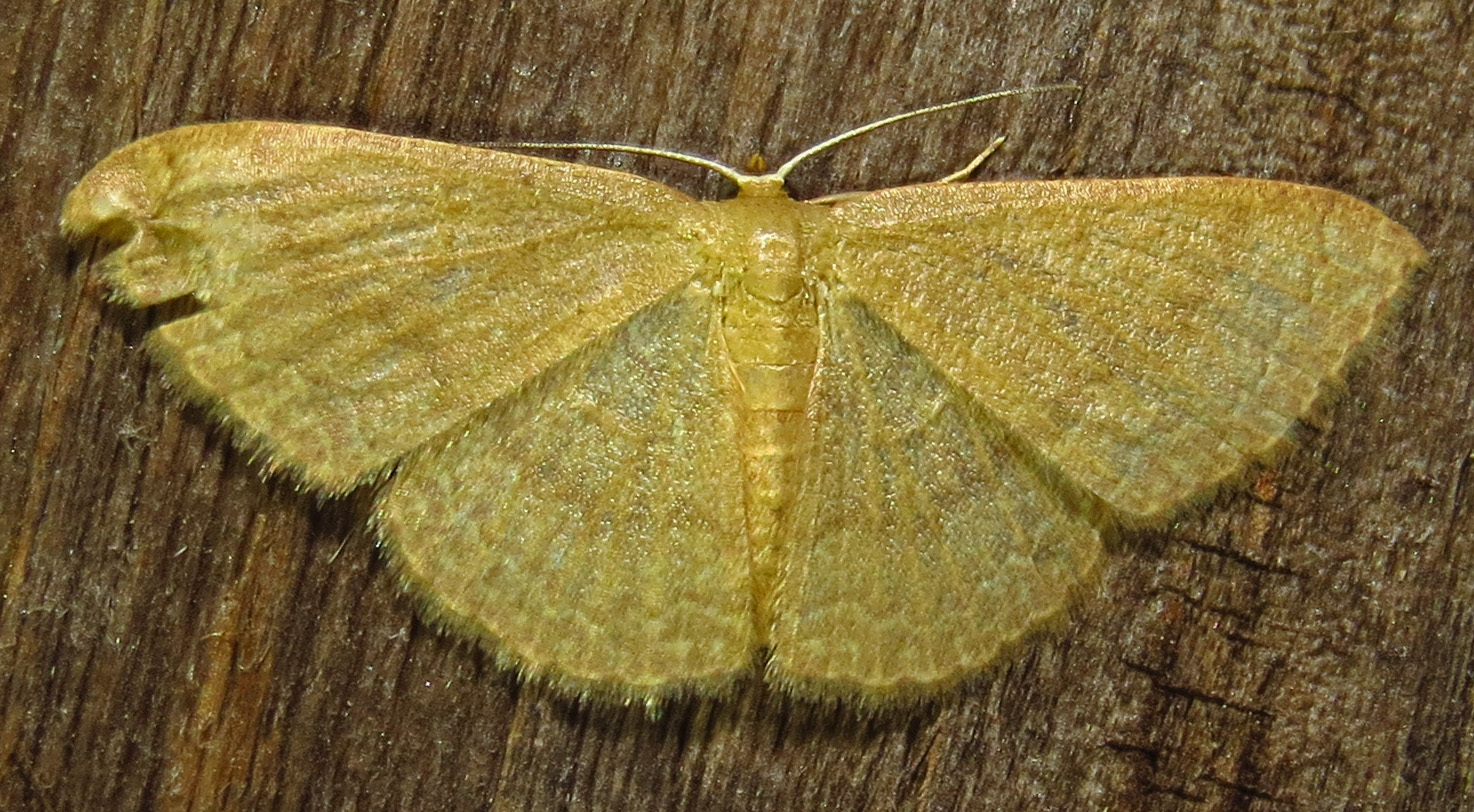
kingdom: Animalia
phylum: Arthropoda
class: Insecta
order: Lepidoptera
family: Geometridae
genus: Pleuroprucha
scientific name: Pleuroprucha insulsaria
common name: Common tan wave
